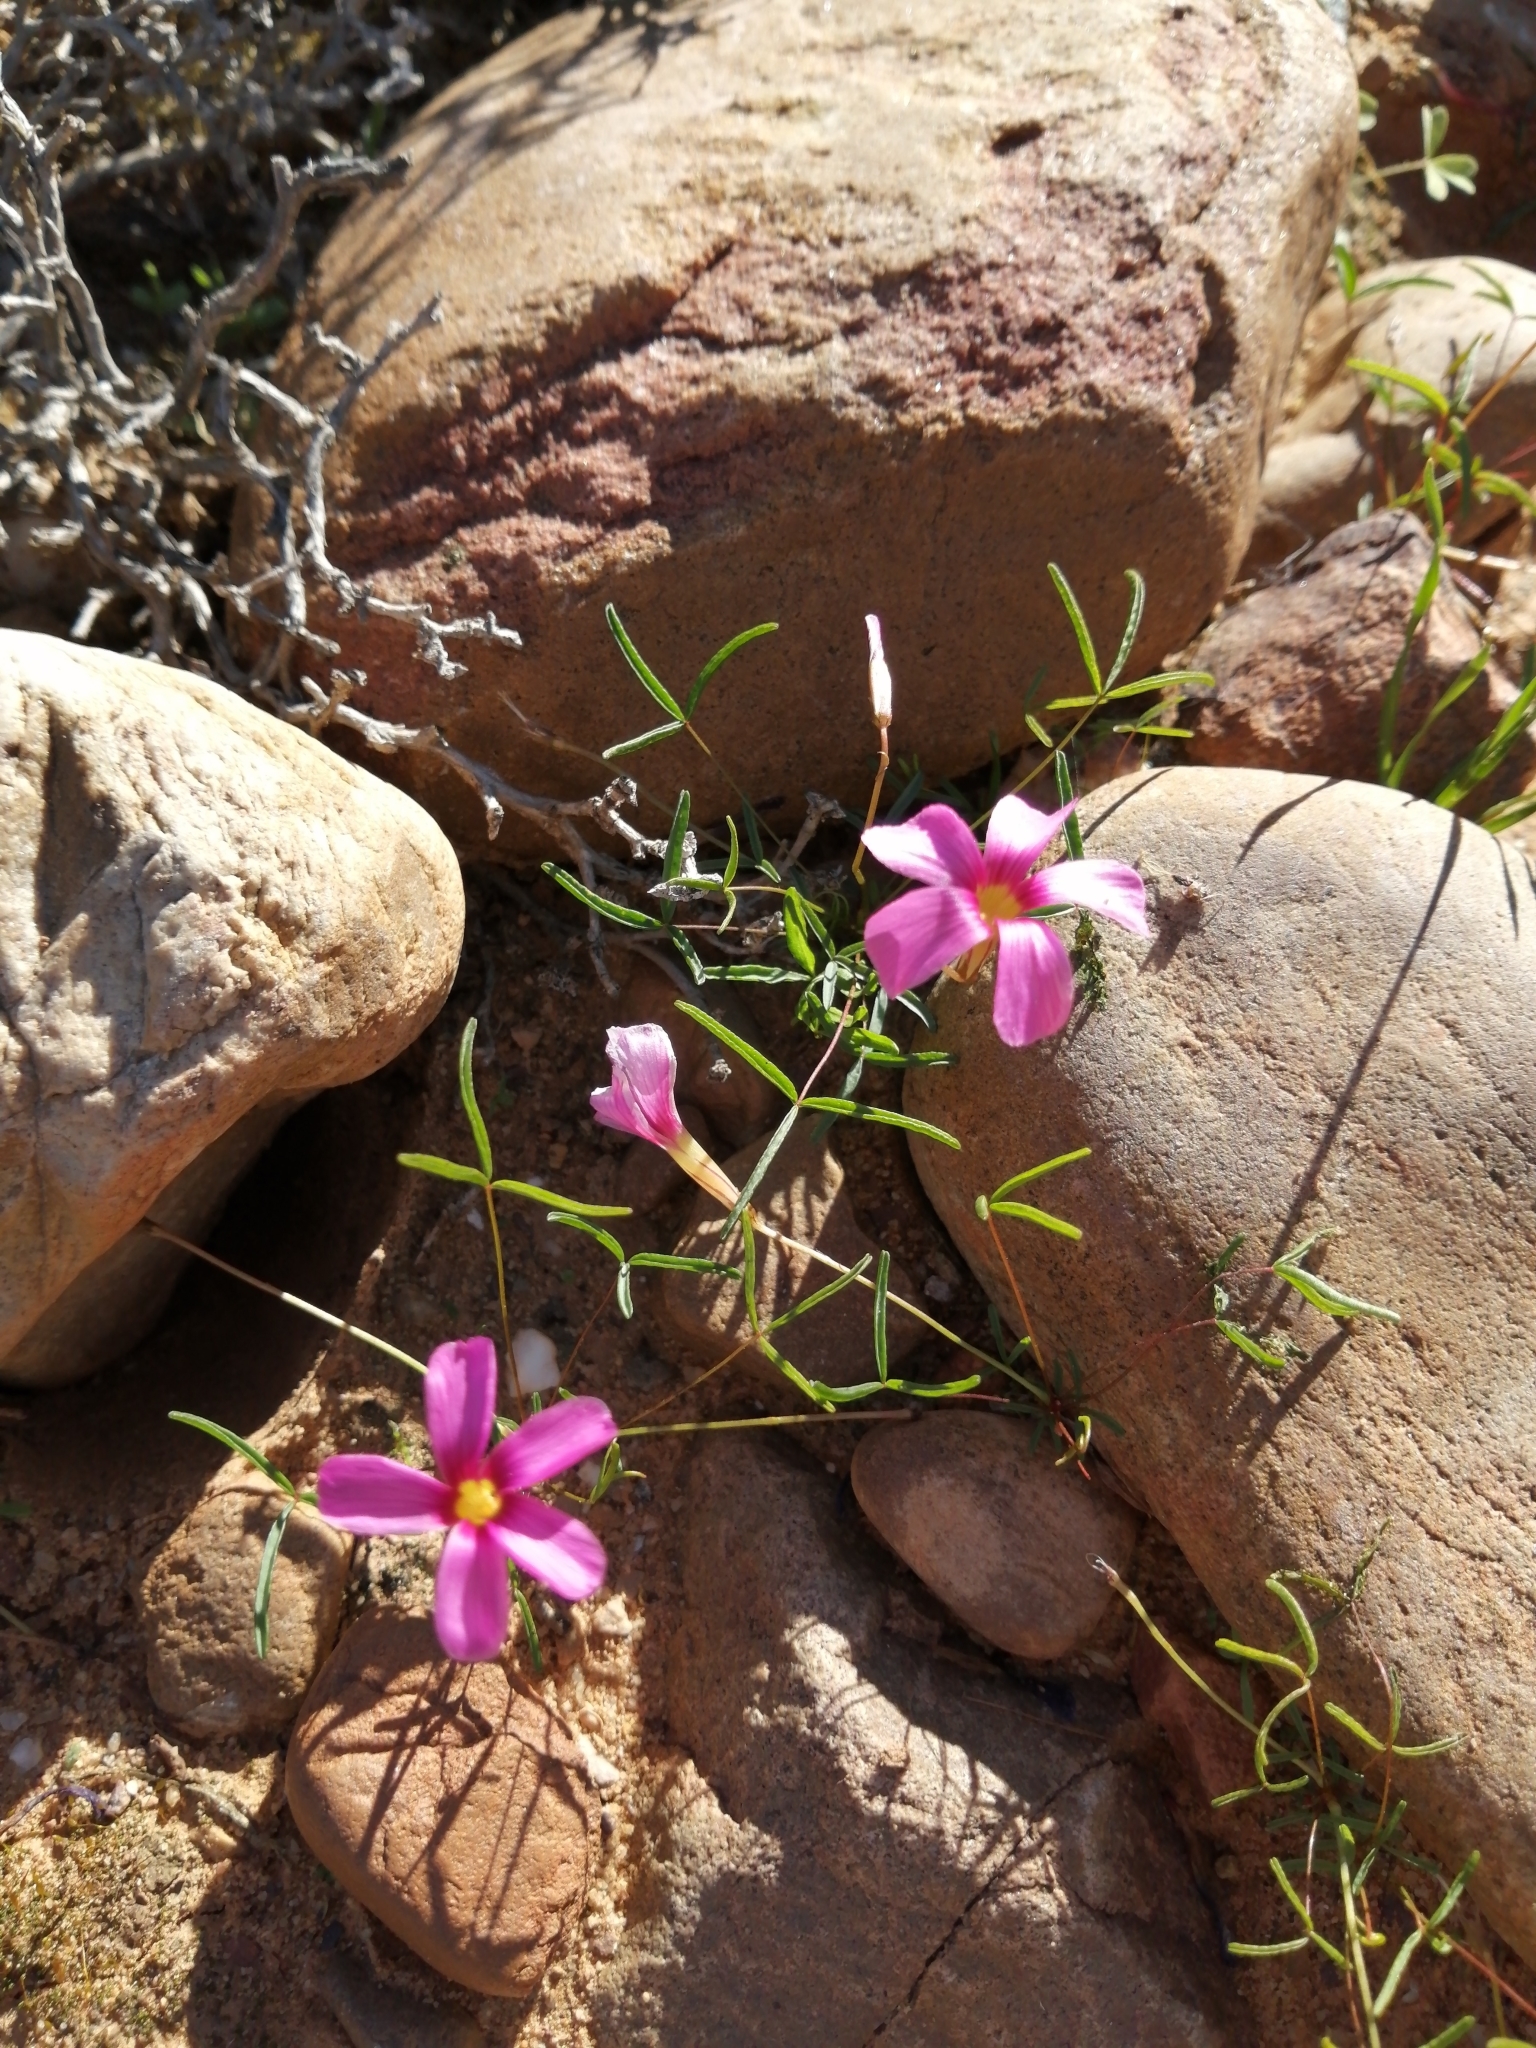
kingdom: Plantae
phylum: Tracheophyta
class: Magnoliopsida
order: Oxalidales
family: Oxalidaceae
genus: Oxalis
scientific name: Oxalis leptogramma
